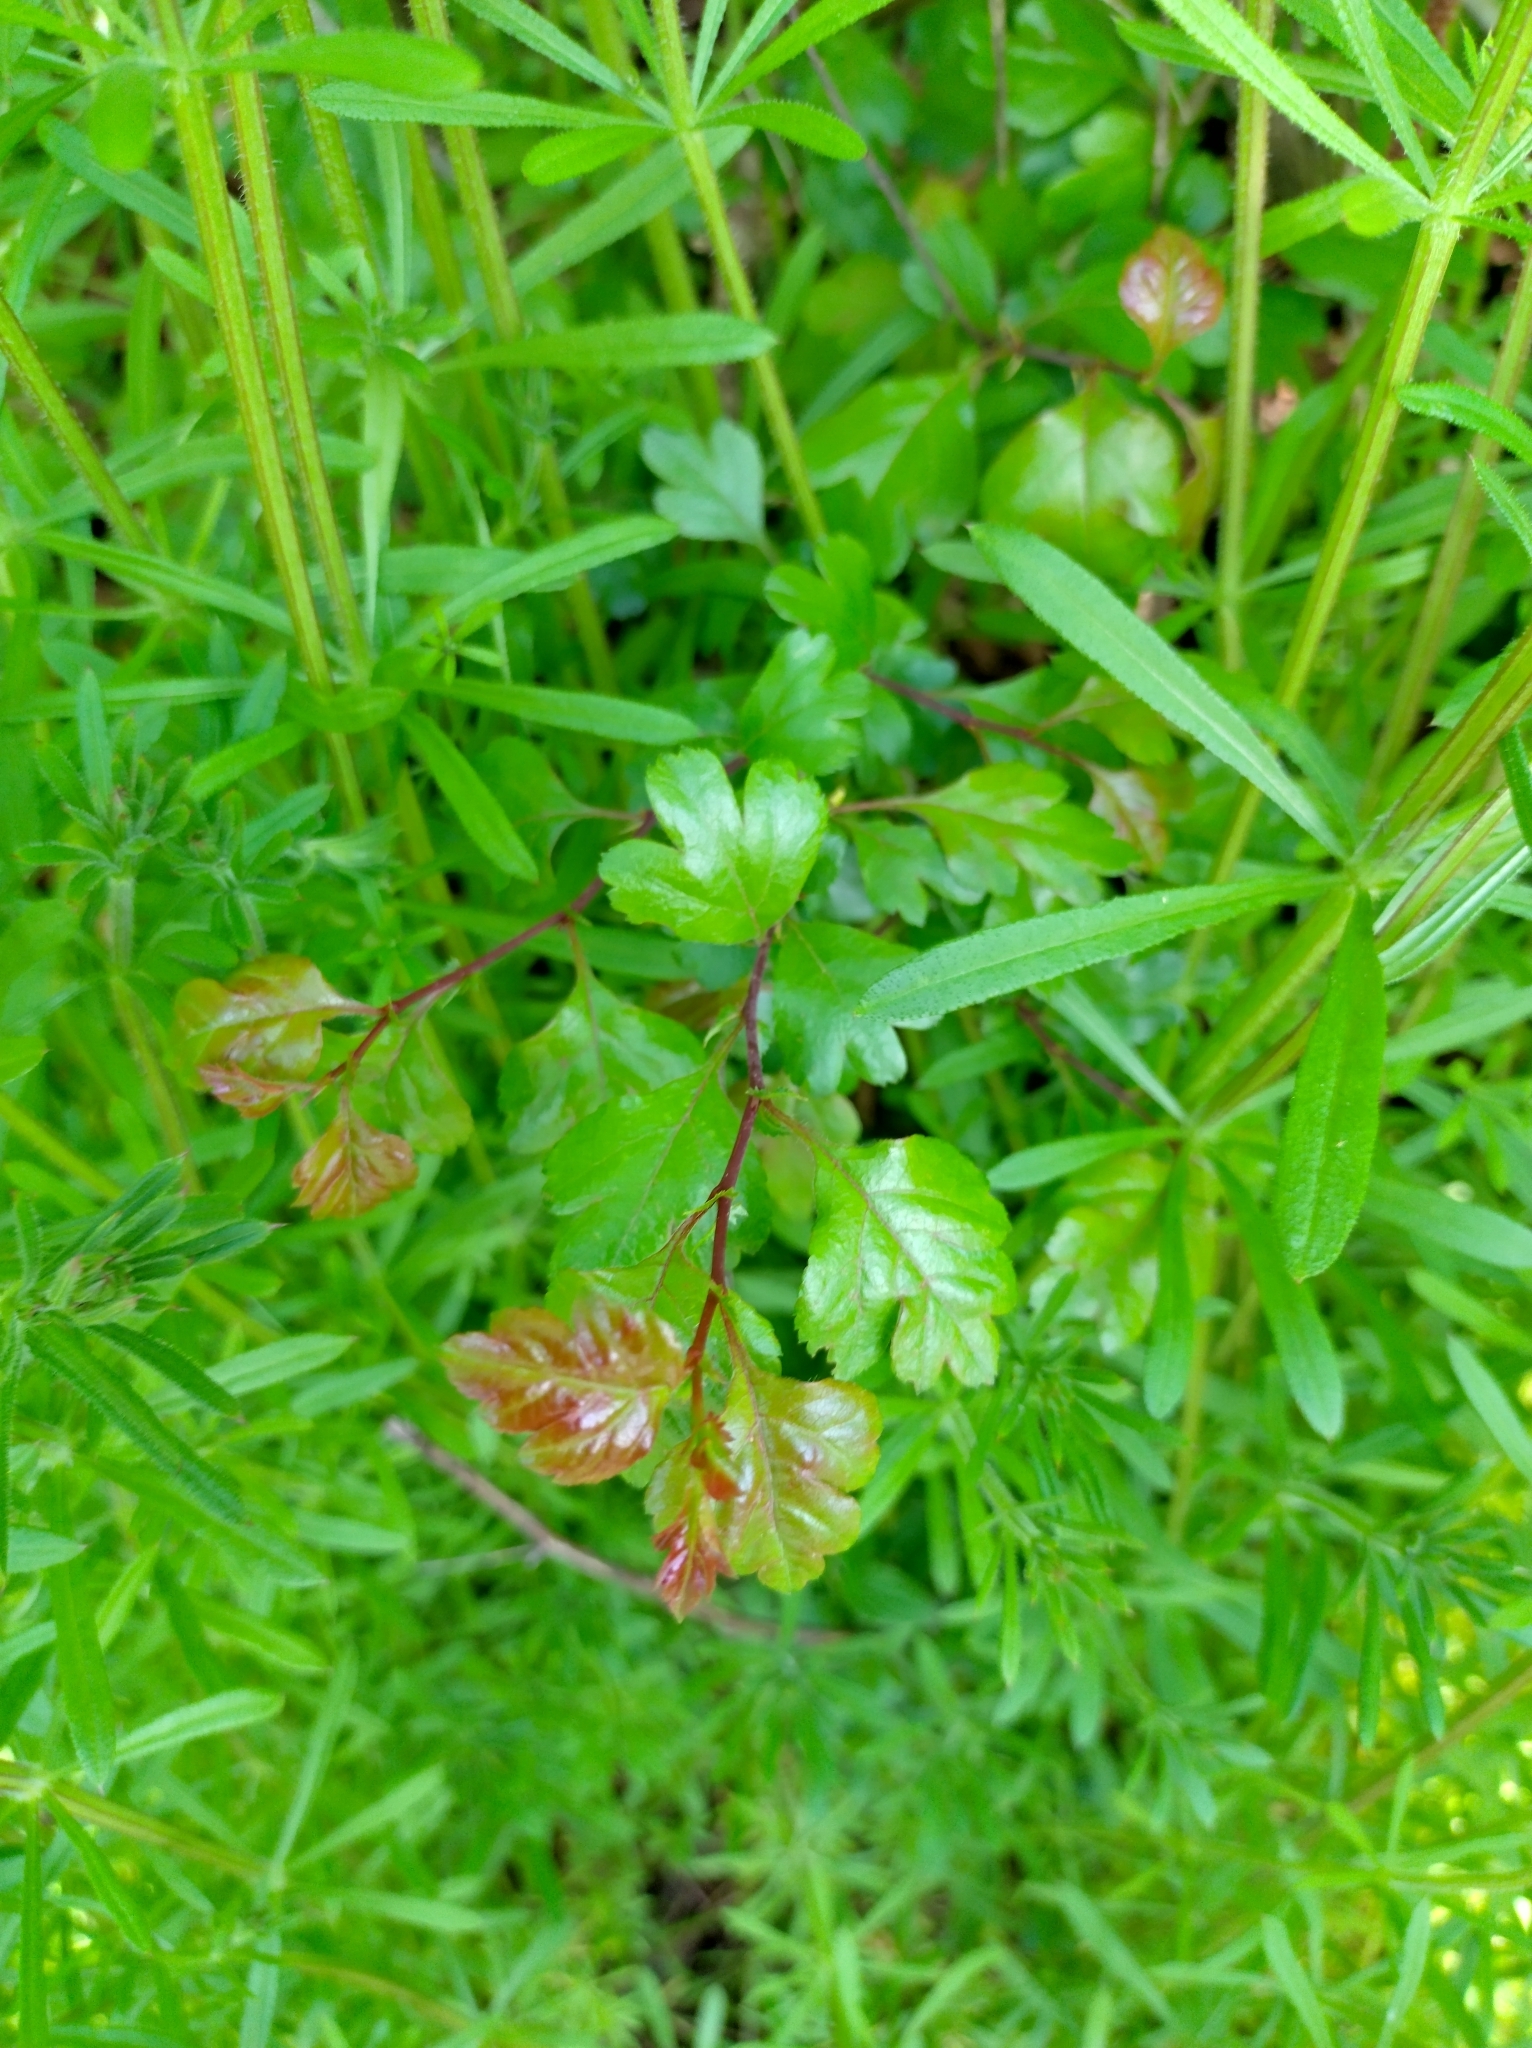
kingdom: Plantae
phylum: Tracheophyta
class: Magnoliopsida
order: Rosales
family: Rosaceae
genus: Crataegus
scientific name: Crataegus laevigata
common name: Midland hawthorn
